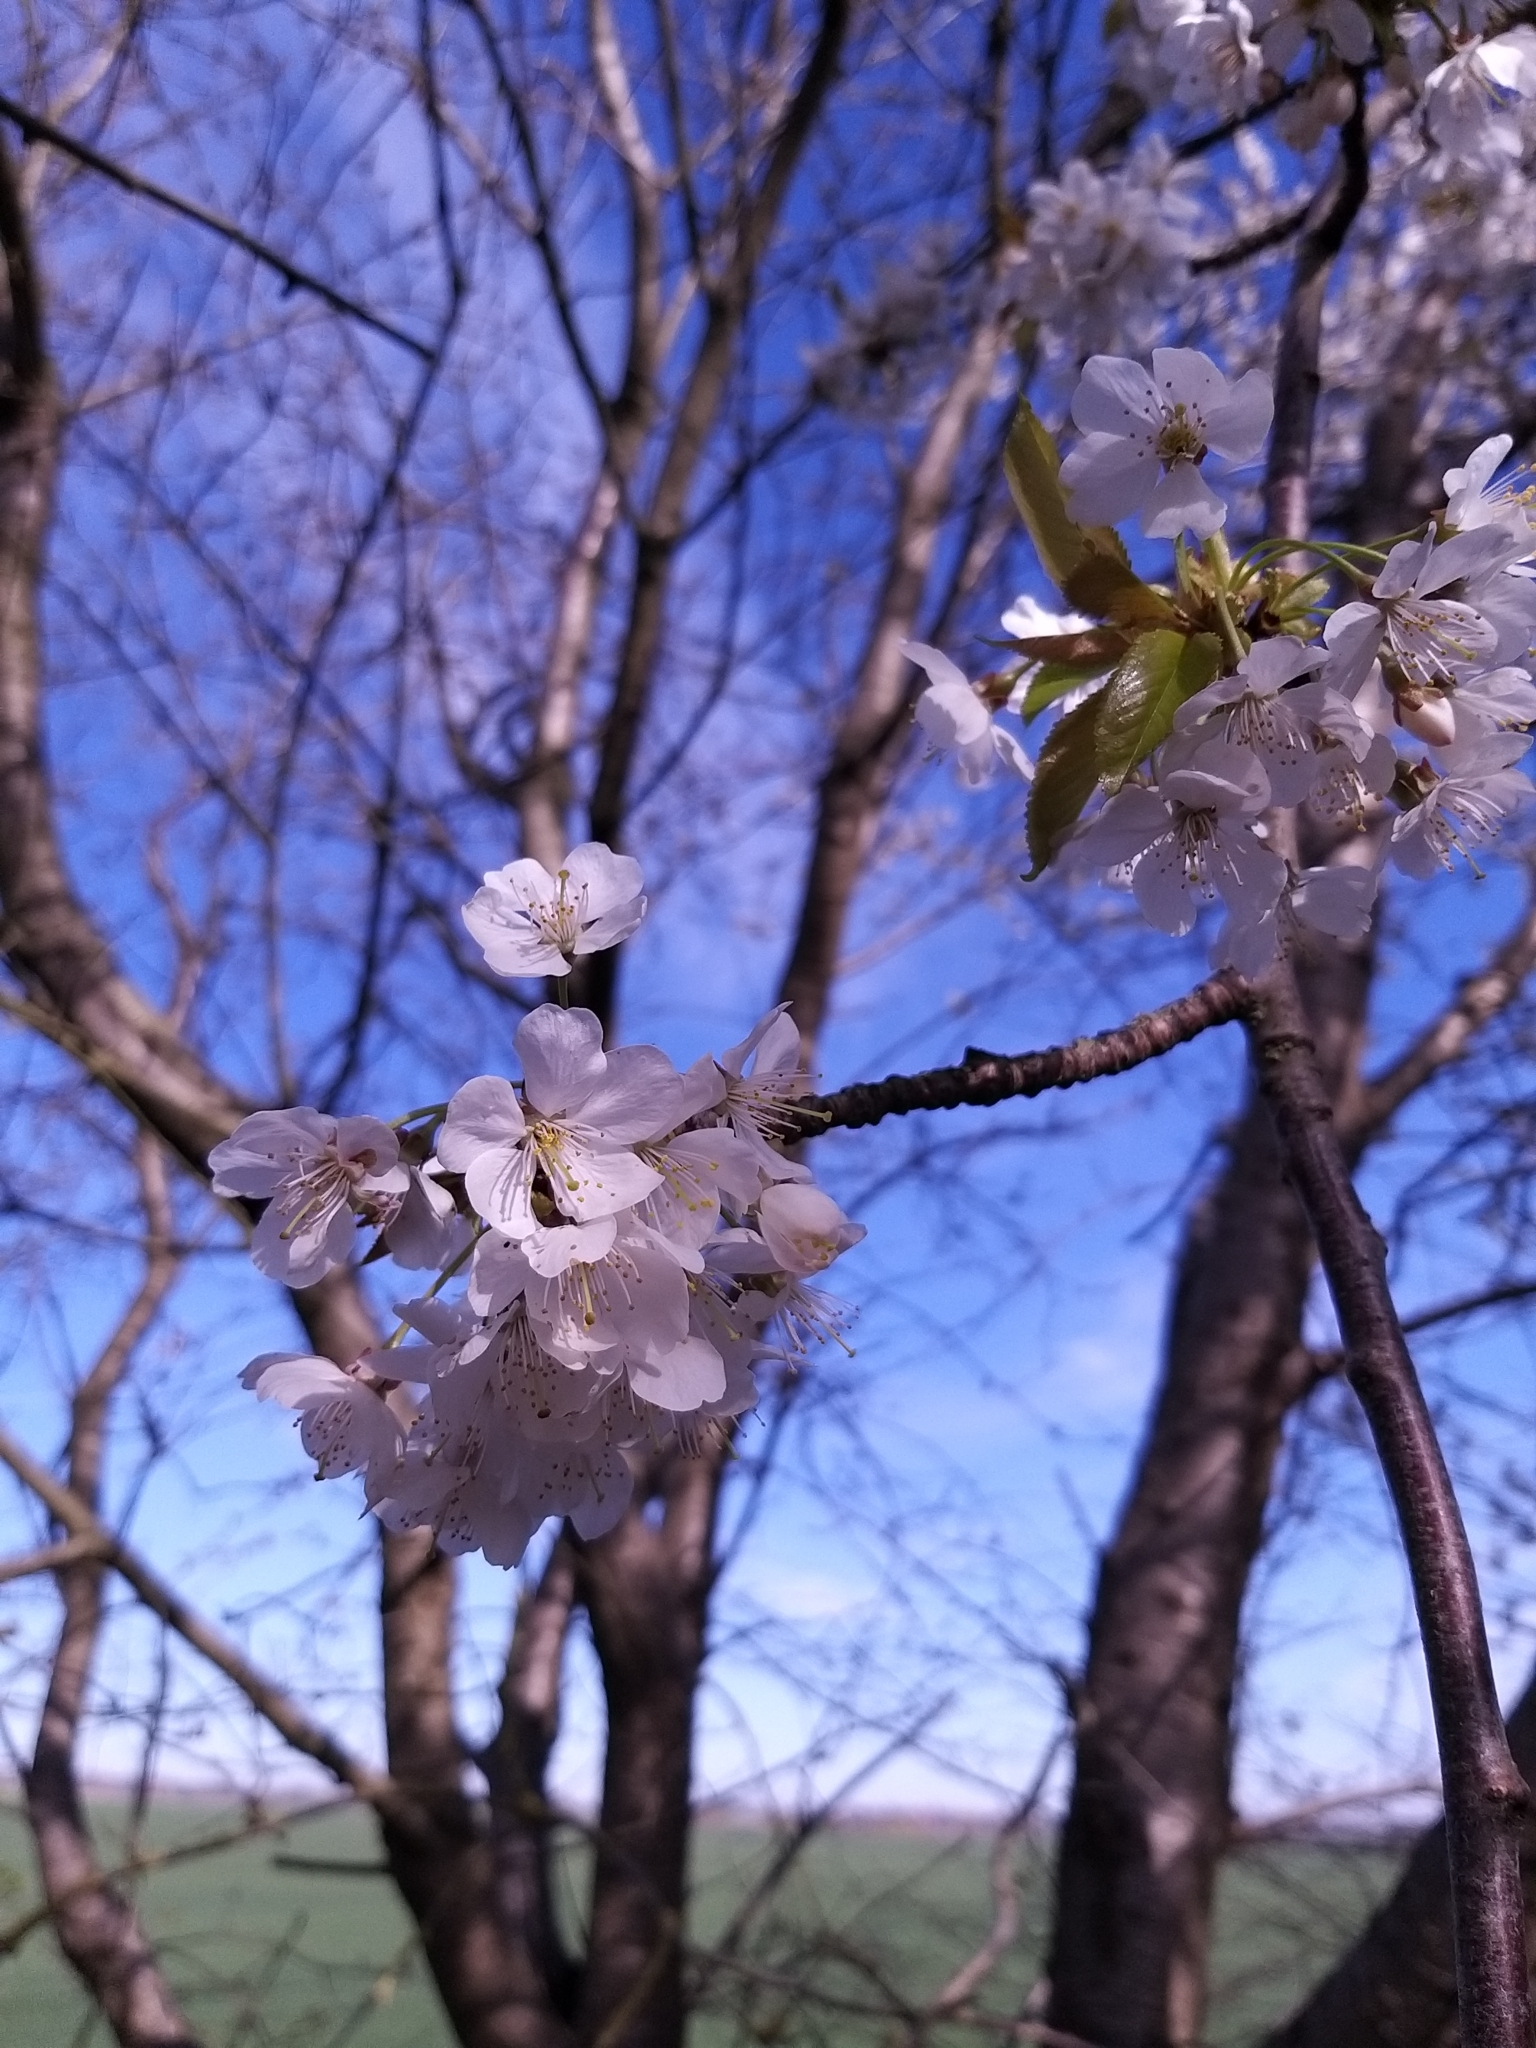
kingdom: Plantae
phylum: Tracheophyta
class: Magnoliopsida
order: Rosales
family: Rosaceae
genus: Prunus
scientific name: Prunus avium
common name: Sweet cherry
